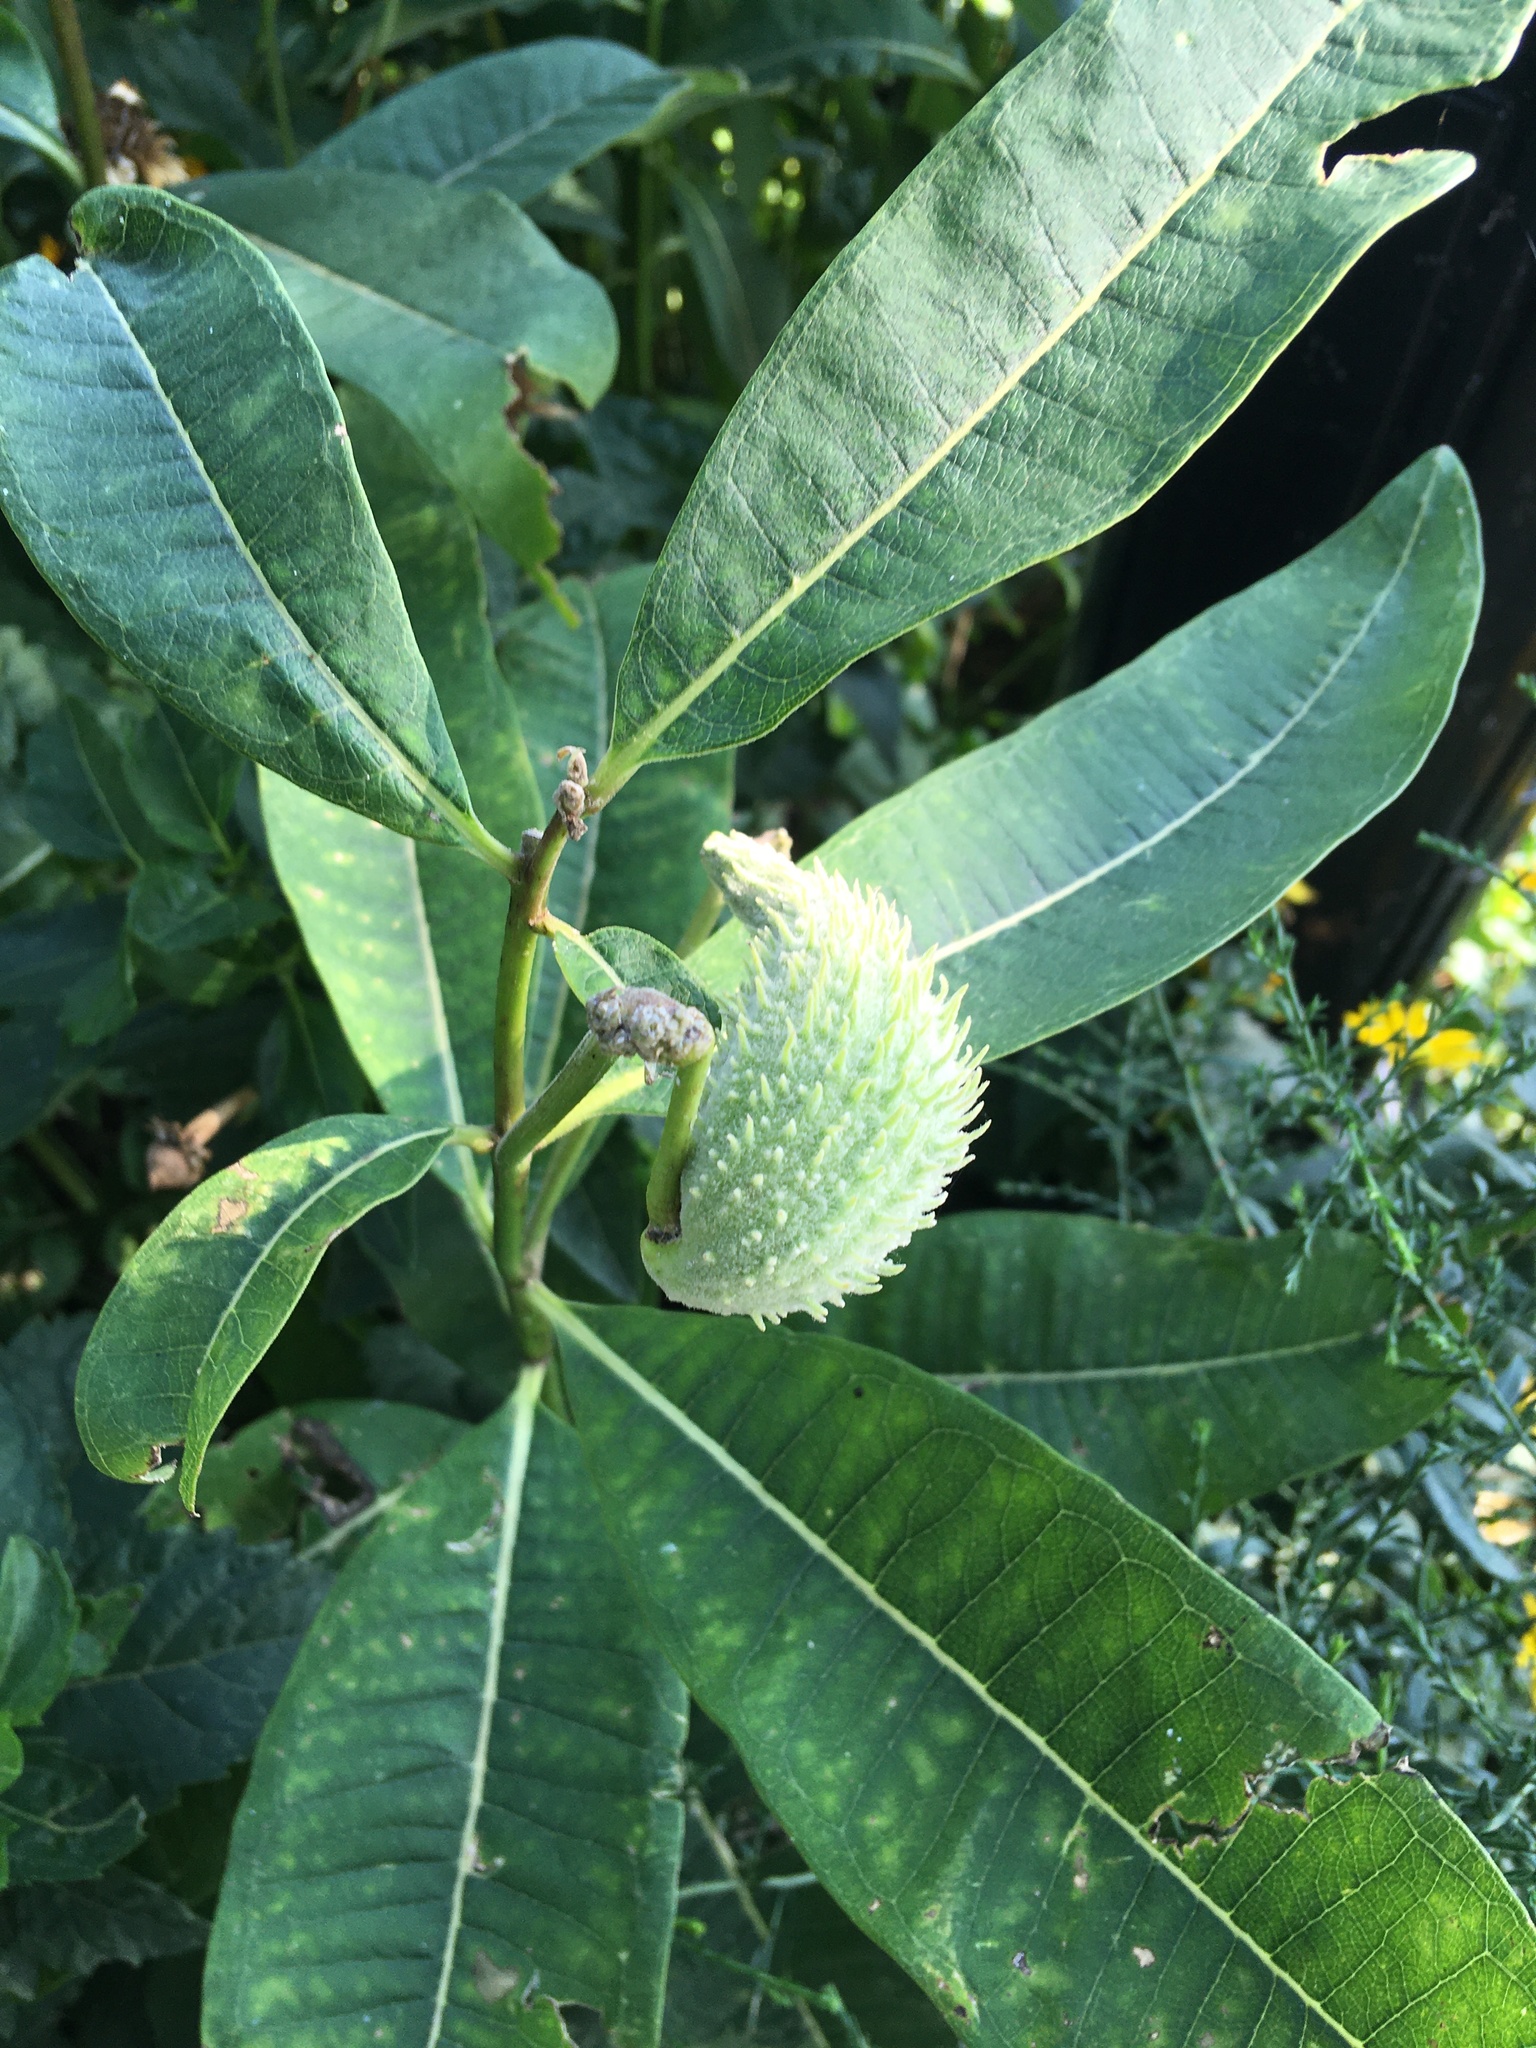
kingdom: Plantae
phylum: Tracheophyta
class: Magnoliopsida
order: Gentianales
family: Apocynaceae
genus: Asclepias
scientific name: Asclepias syriaca
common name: Common milkweed
